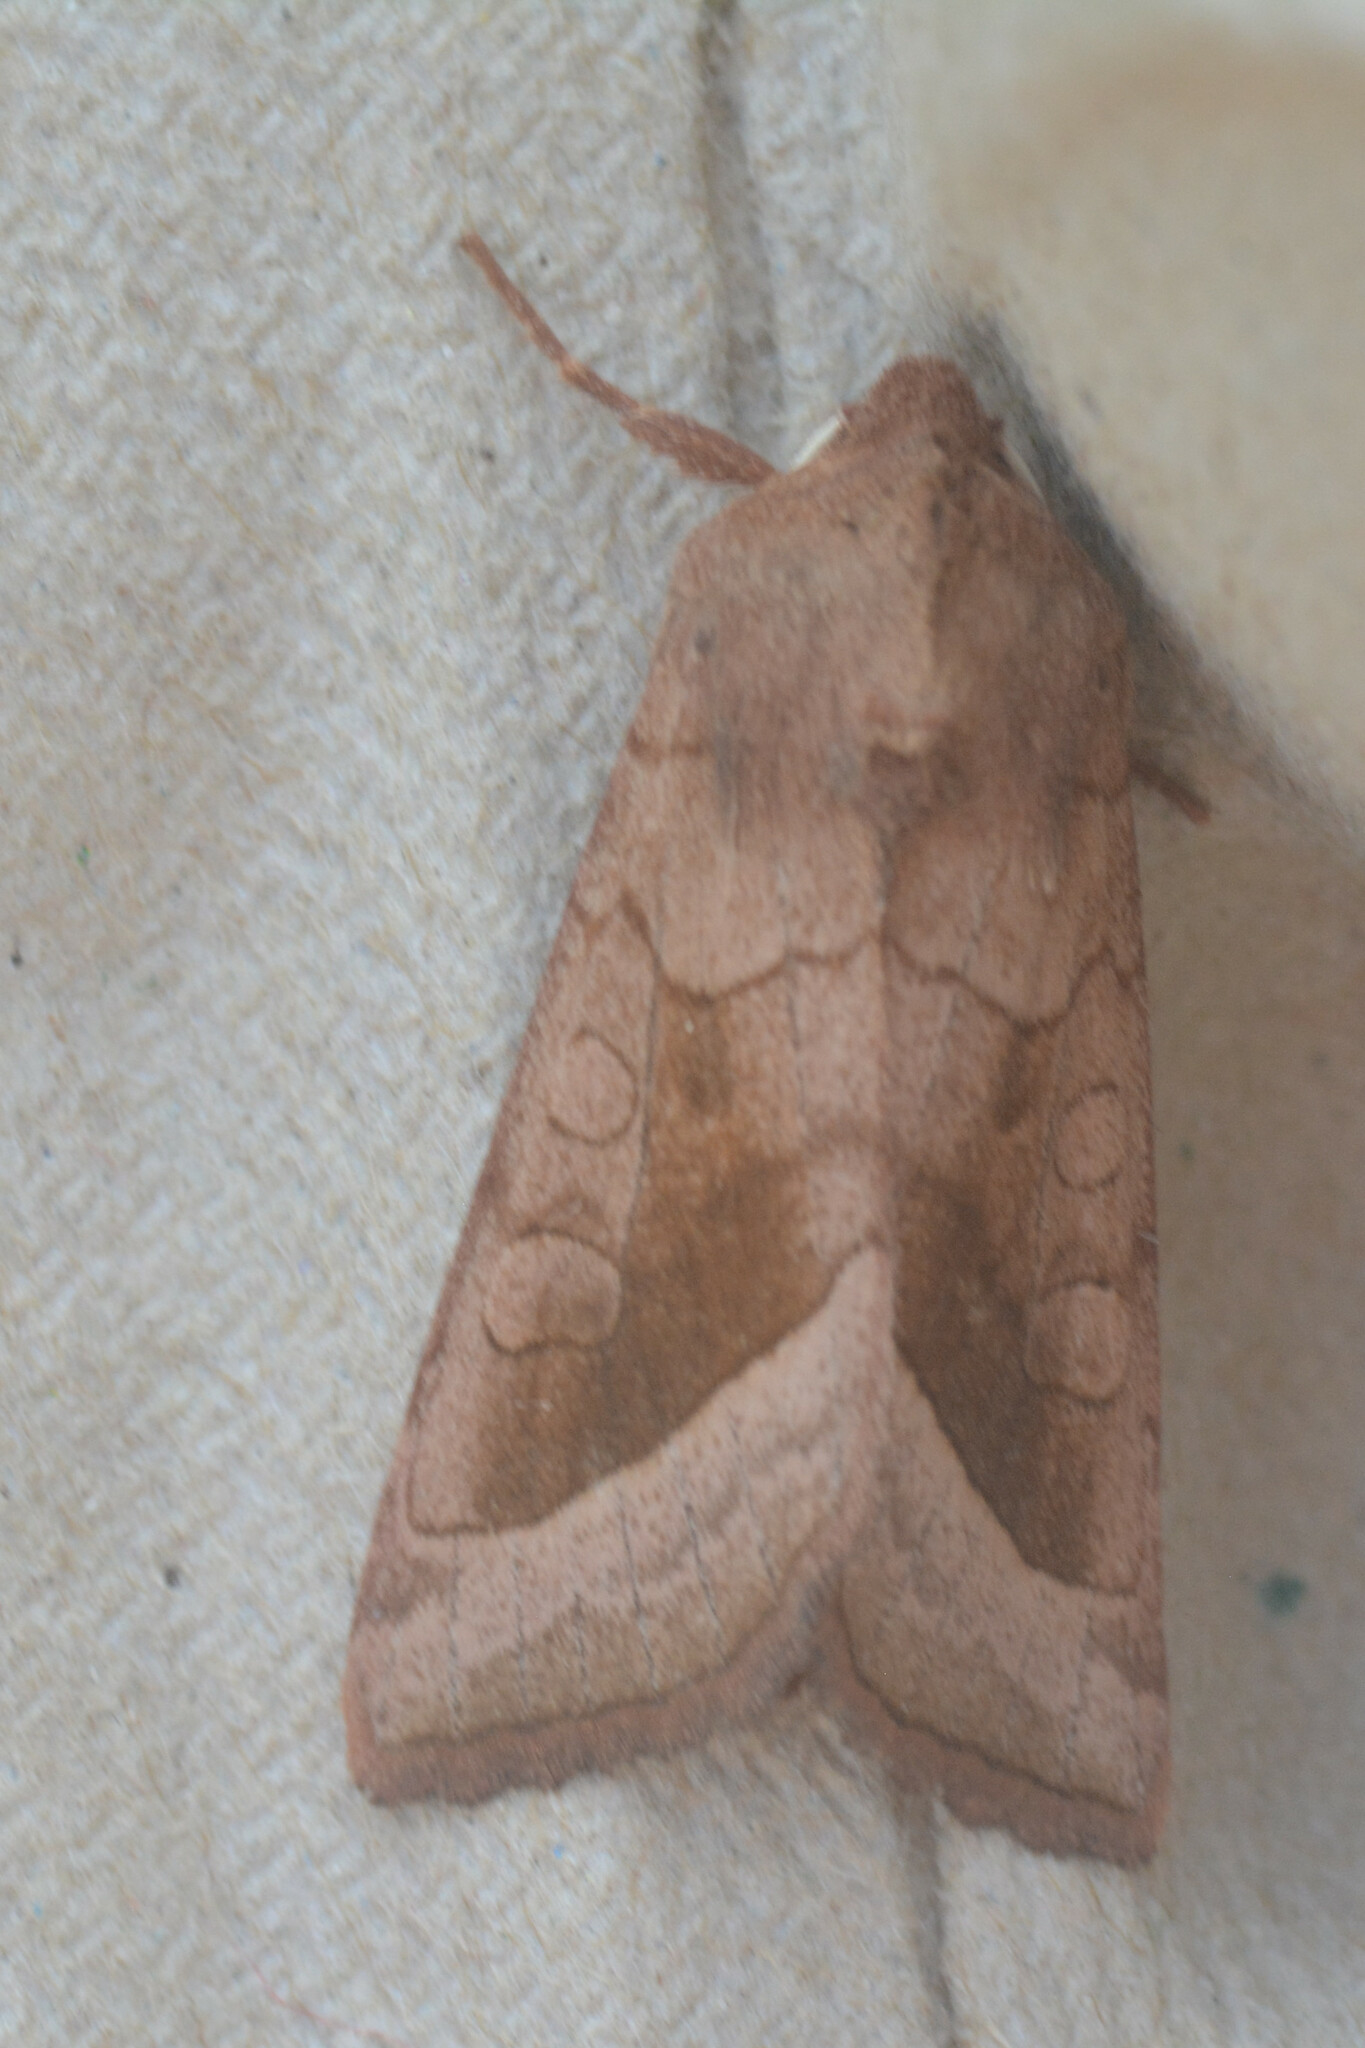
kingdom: Animalia
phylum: Arthropoda
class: Insecta
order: Lepidoptera
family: Noctuidae
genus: Hydraecia
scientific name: Hydraecia micacea
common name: Rosy rustic
